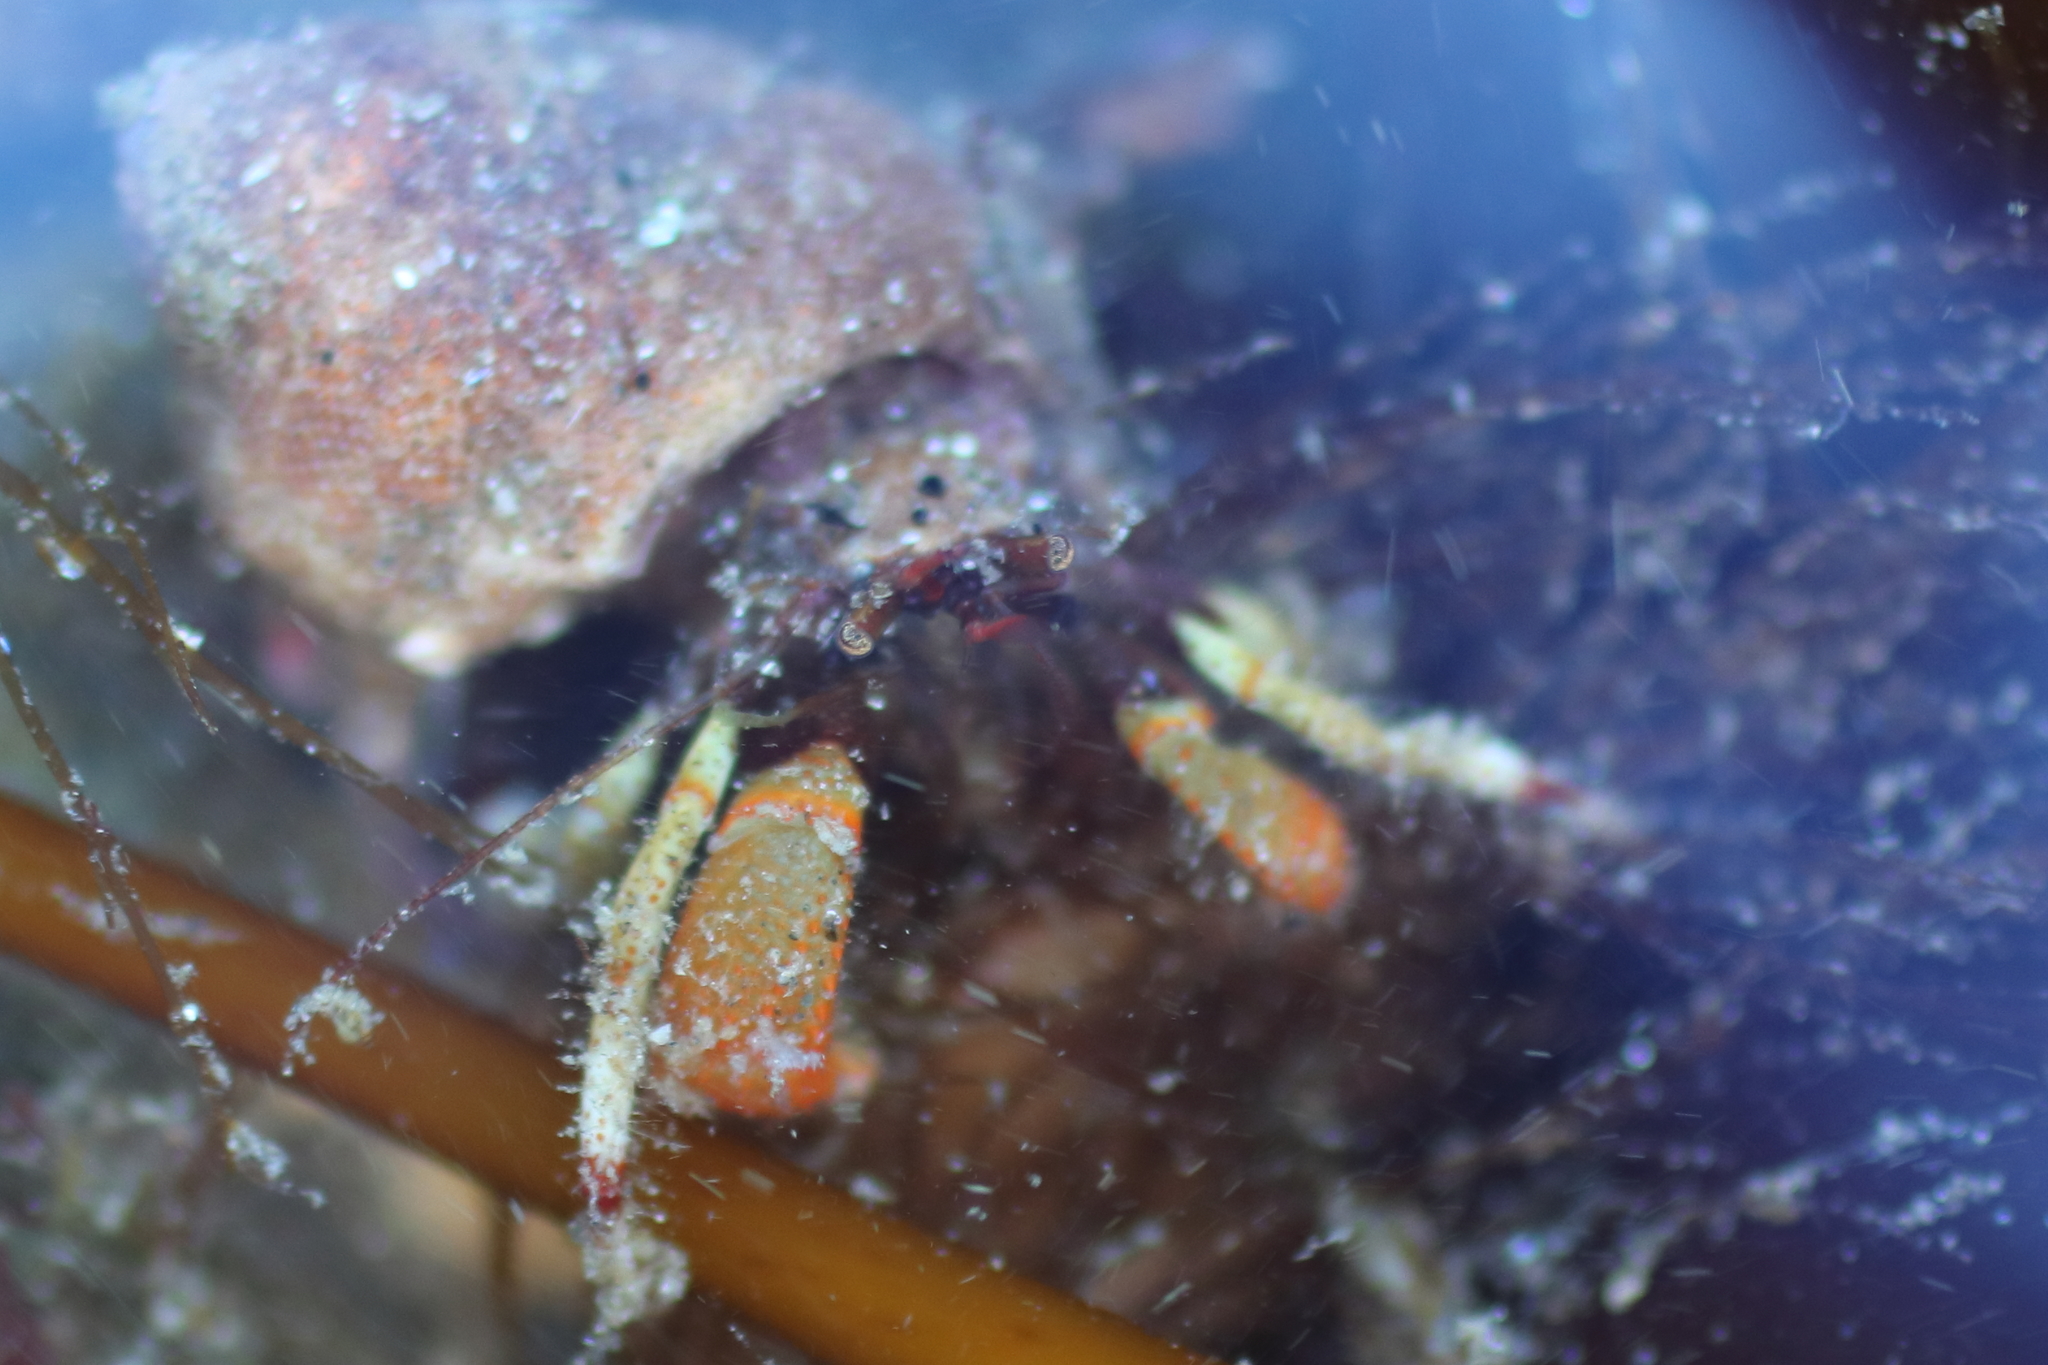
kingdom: Animalia
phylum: Arthropoda
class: Malacostraca
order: Decapoda
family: Paguridae
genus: Pagurus
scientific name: Pagurus beringanus
